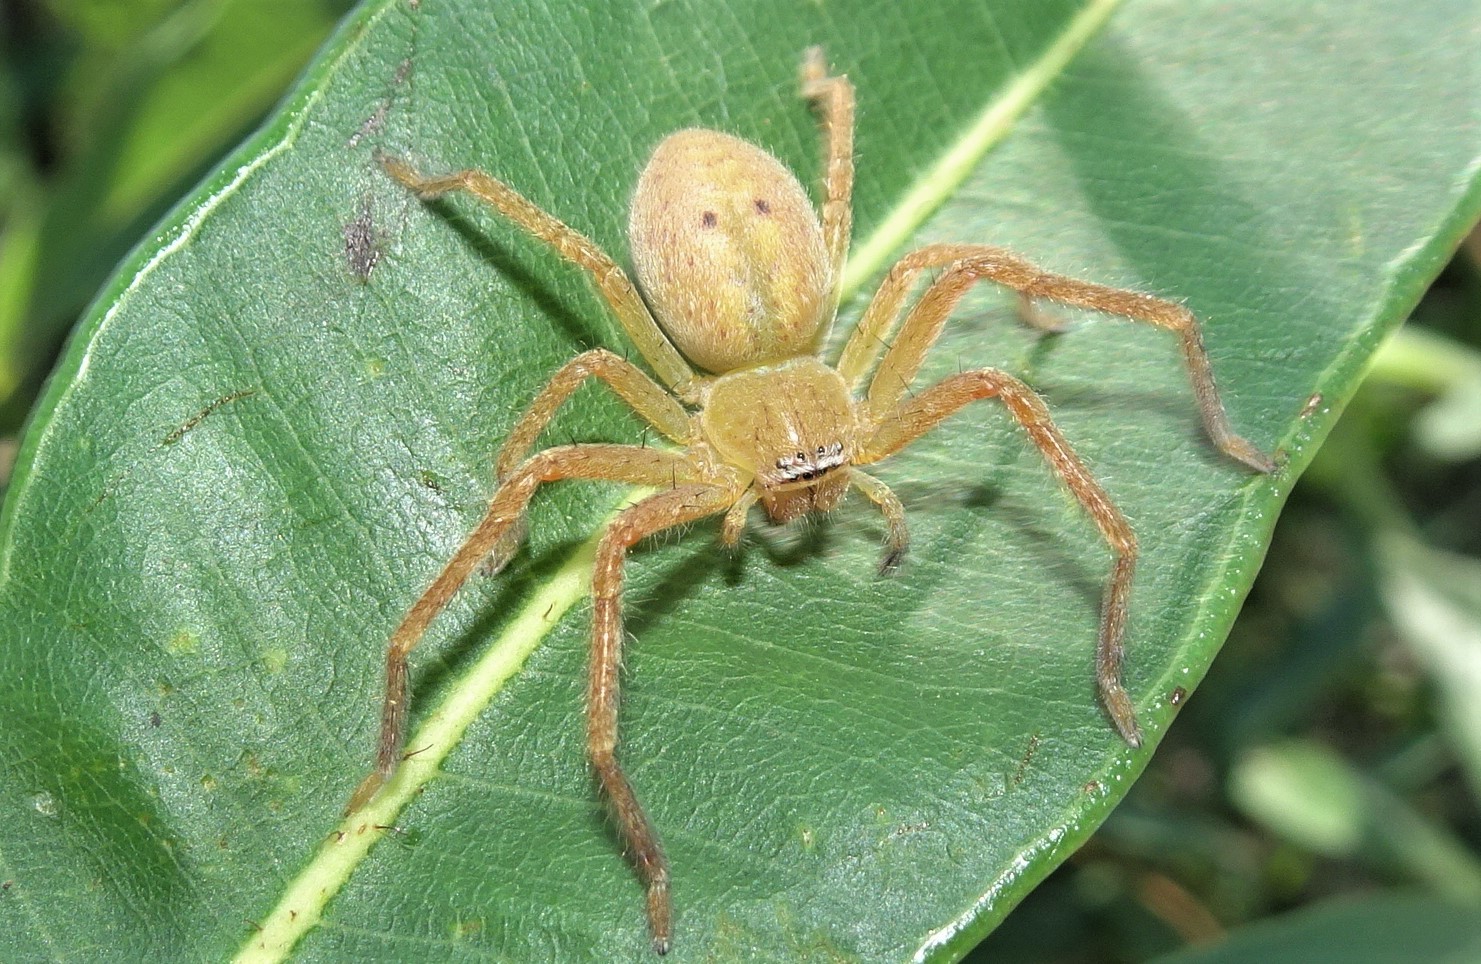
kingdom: Animalia
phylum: Arthropoda
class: Arachnida
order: Araneae
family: Sparassidae
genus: Neosparassus
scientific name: Neosparassus salacius
